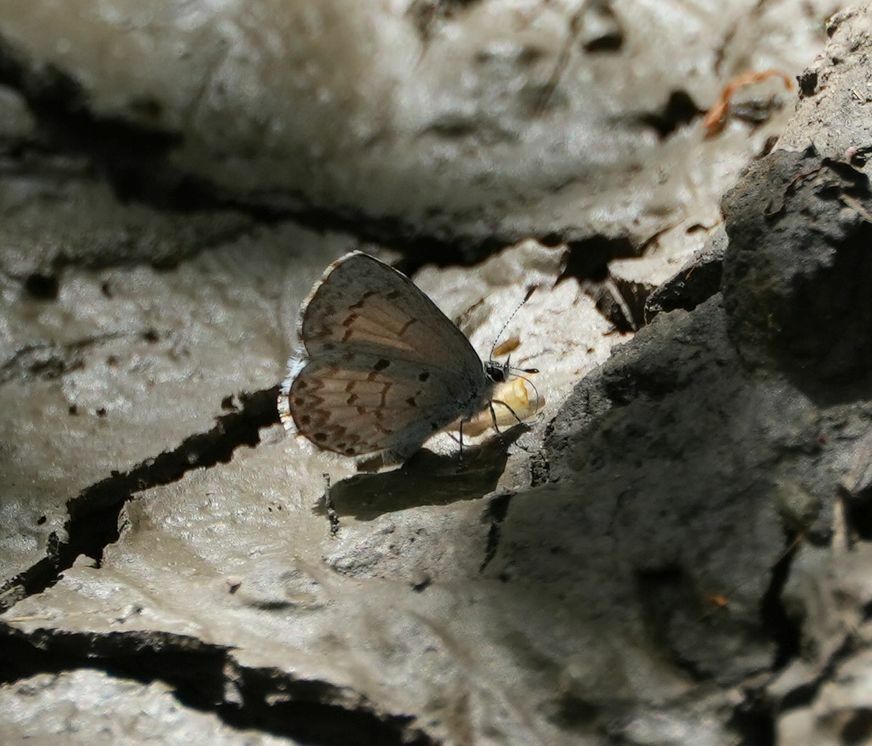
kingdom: Animalia
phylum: Arthropoda
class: Insecta
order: Lepidoptera
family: Lycaenidae
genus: Celastrina
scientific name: Celastrina lucia
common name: Lucia azure
